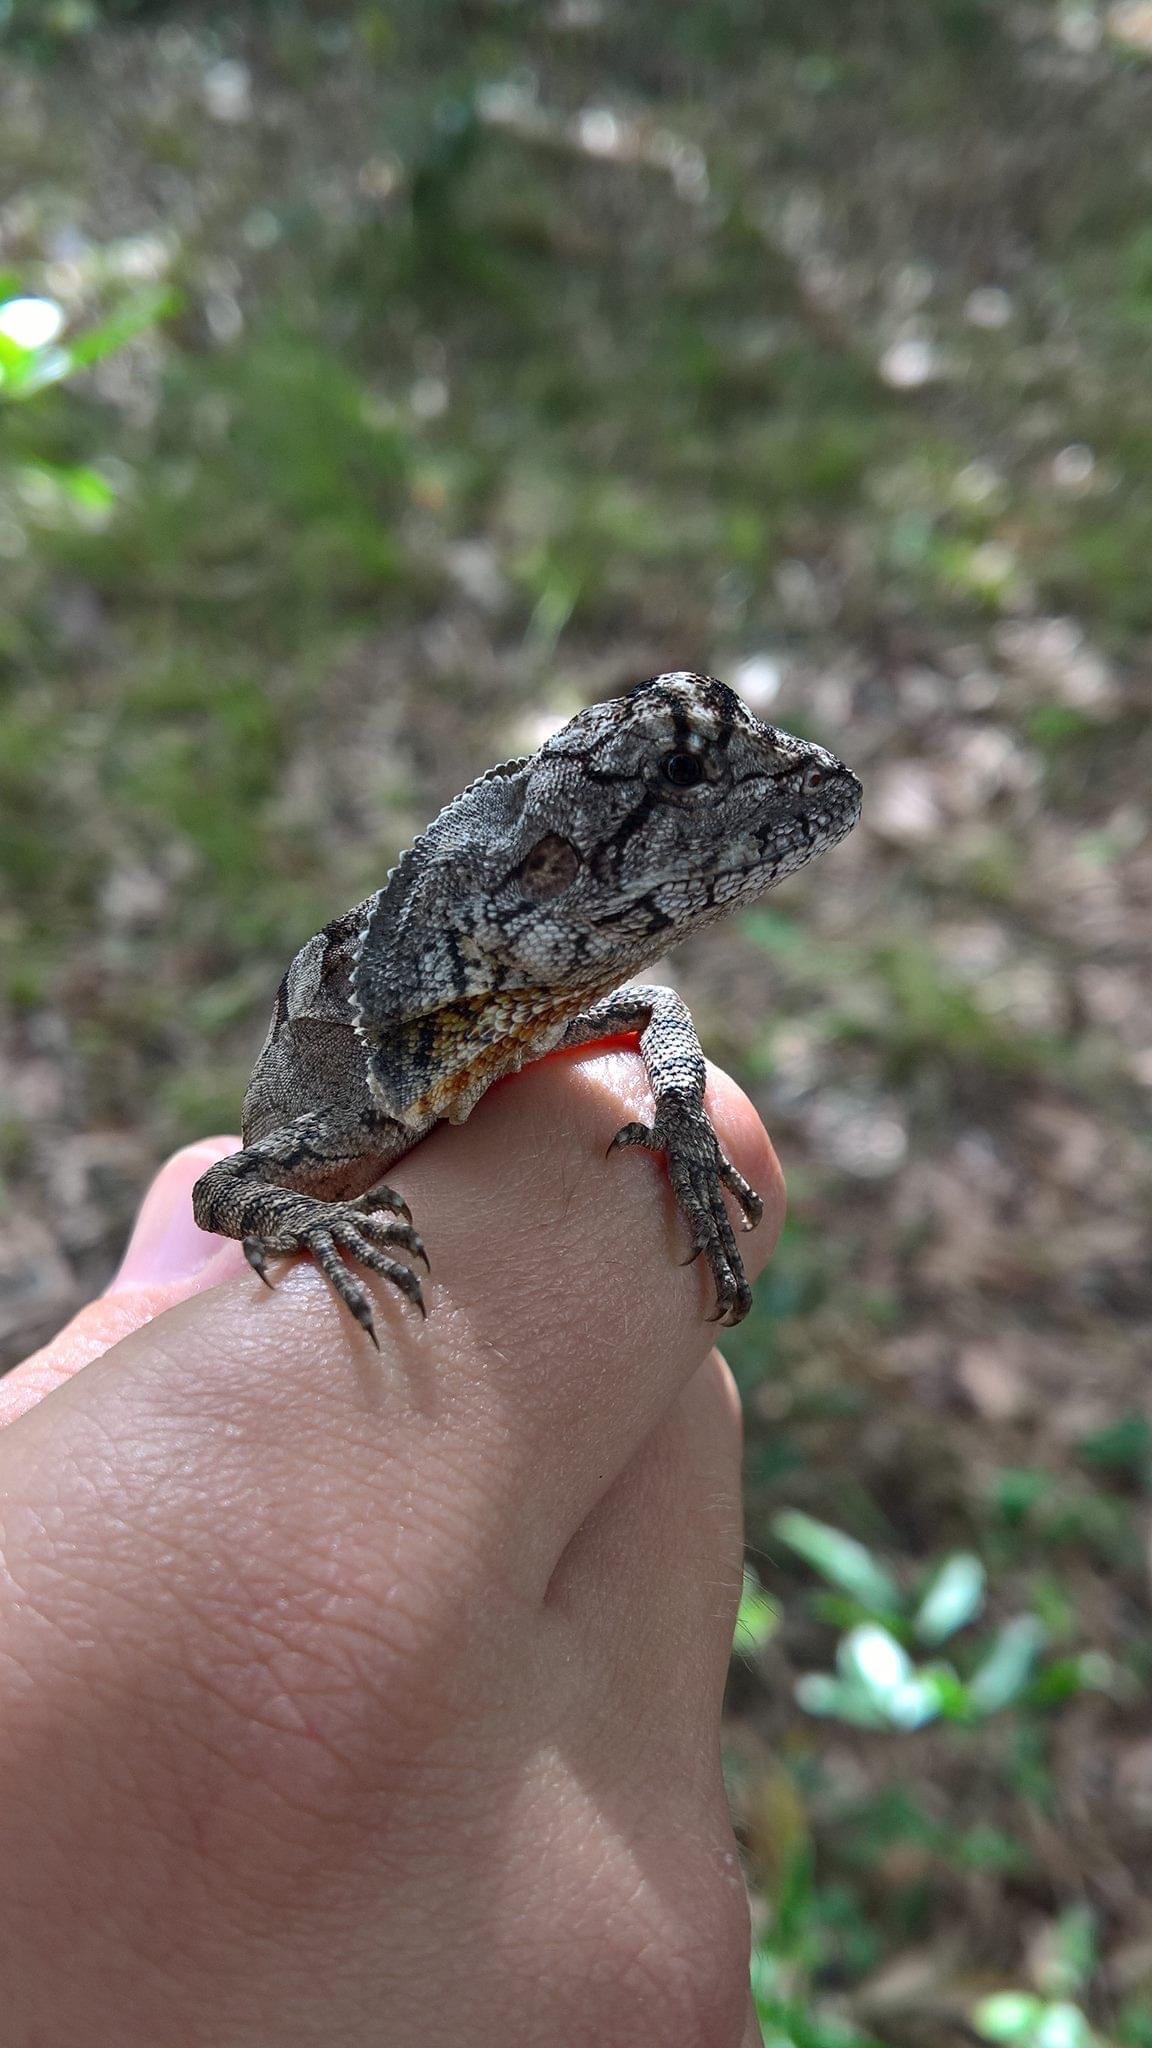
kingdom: Animalia
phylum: Chordata
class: Squamata
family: Agamidae
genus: Chlamydosaurus
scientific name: Chlamydosaurus kingii
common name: Frilled lizard
